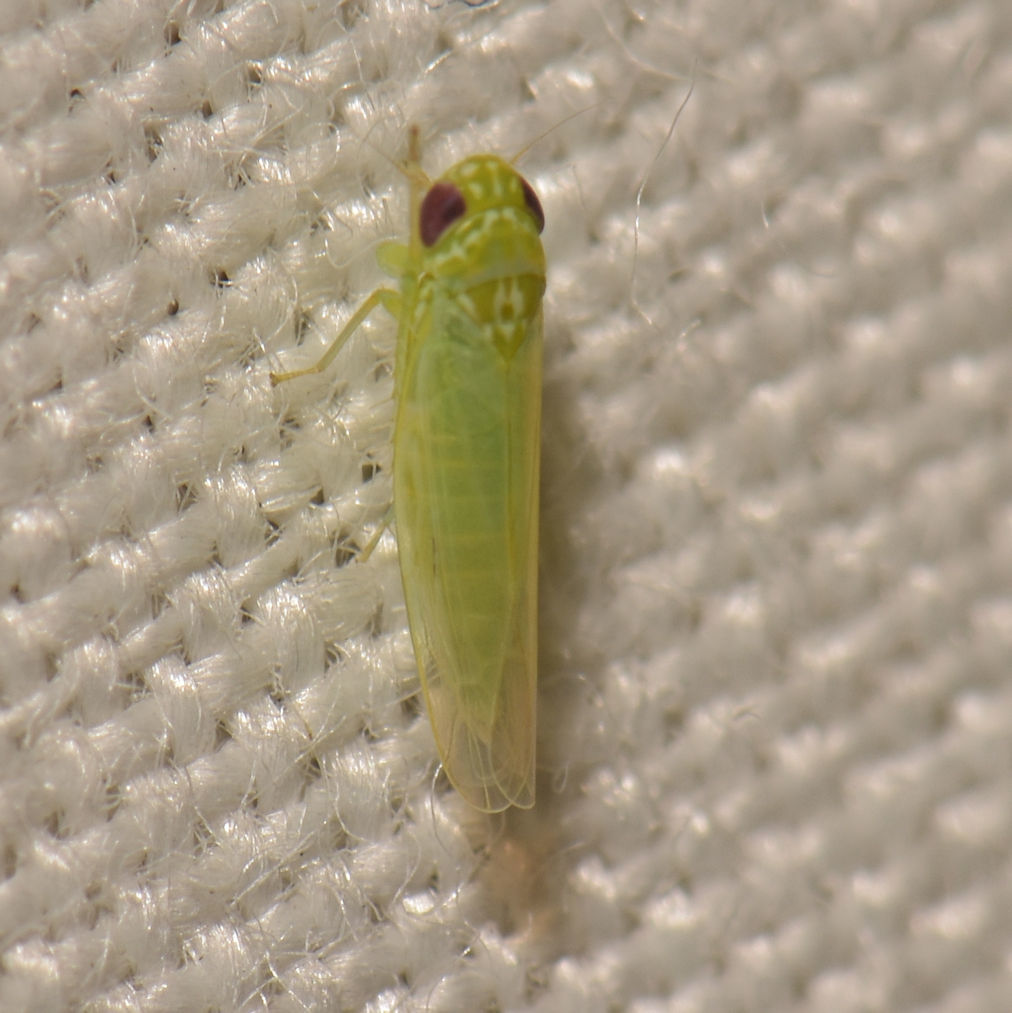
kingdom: Animalia
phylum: Arthropoda
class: Insecta
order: Hemiptera
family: Cicadellidae
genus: Empoasca
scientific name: Empoasca fabae
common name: Potato leafhopper
